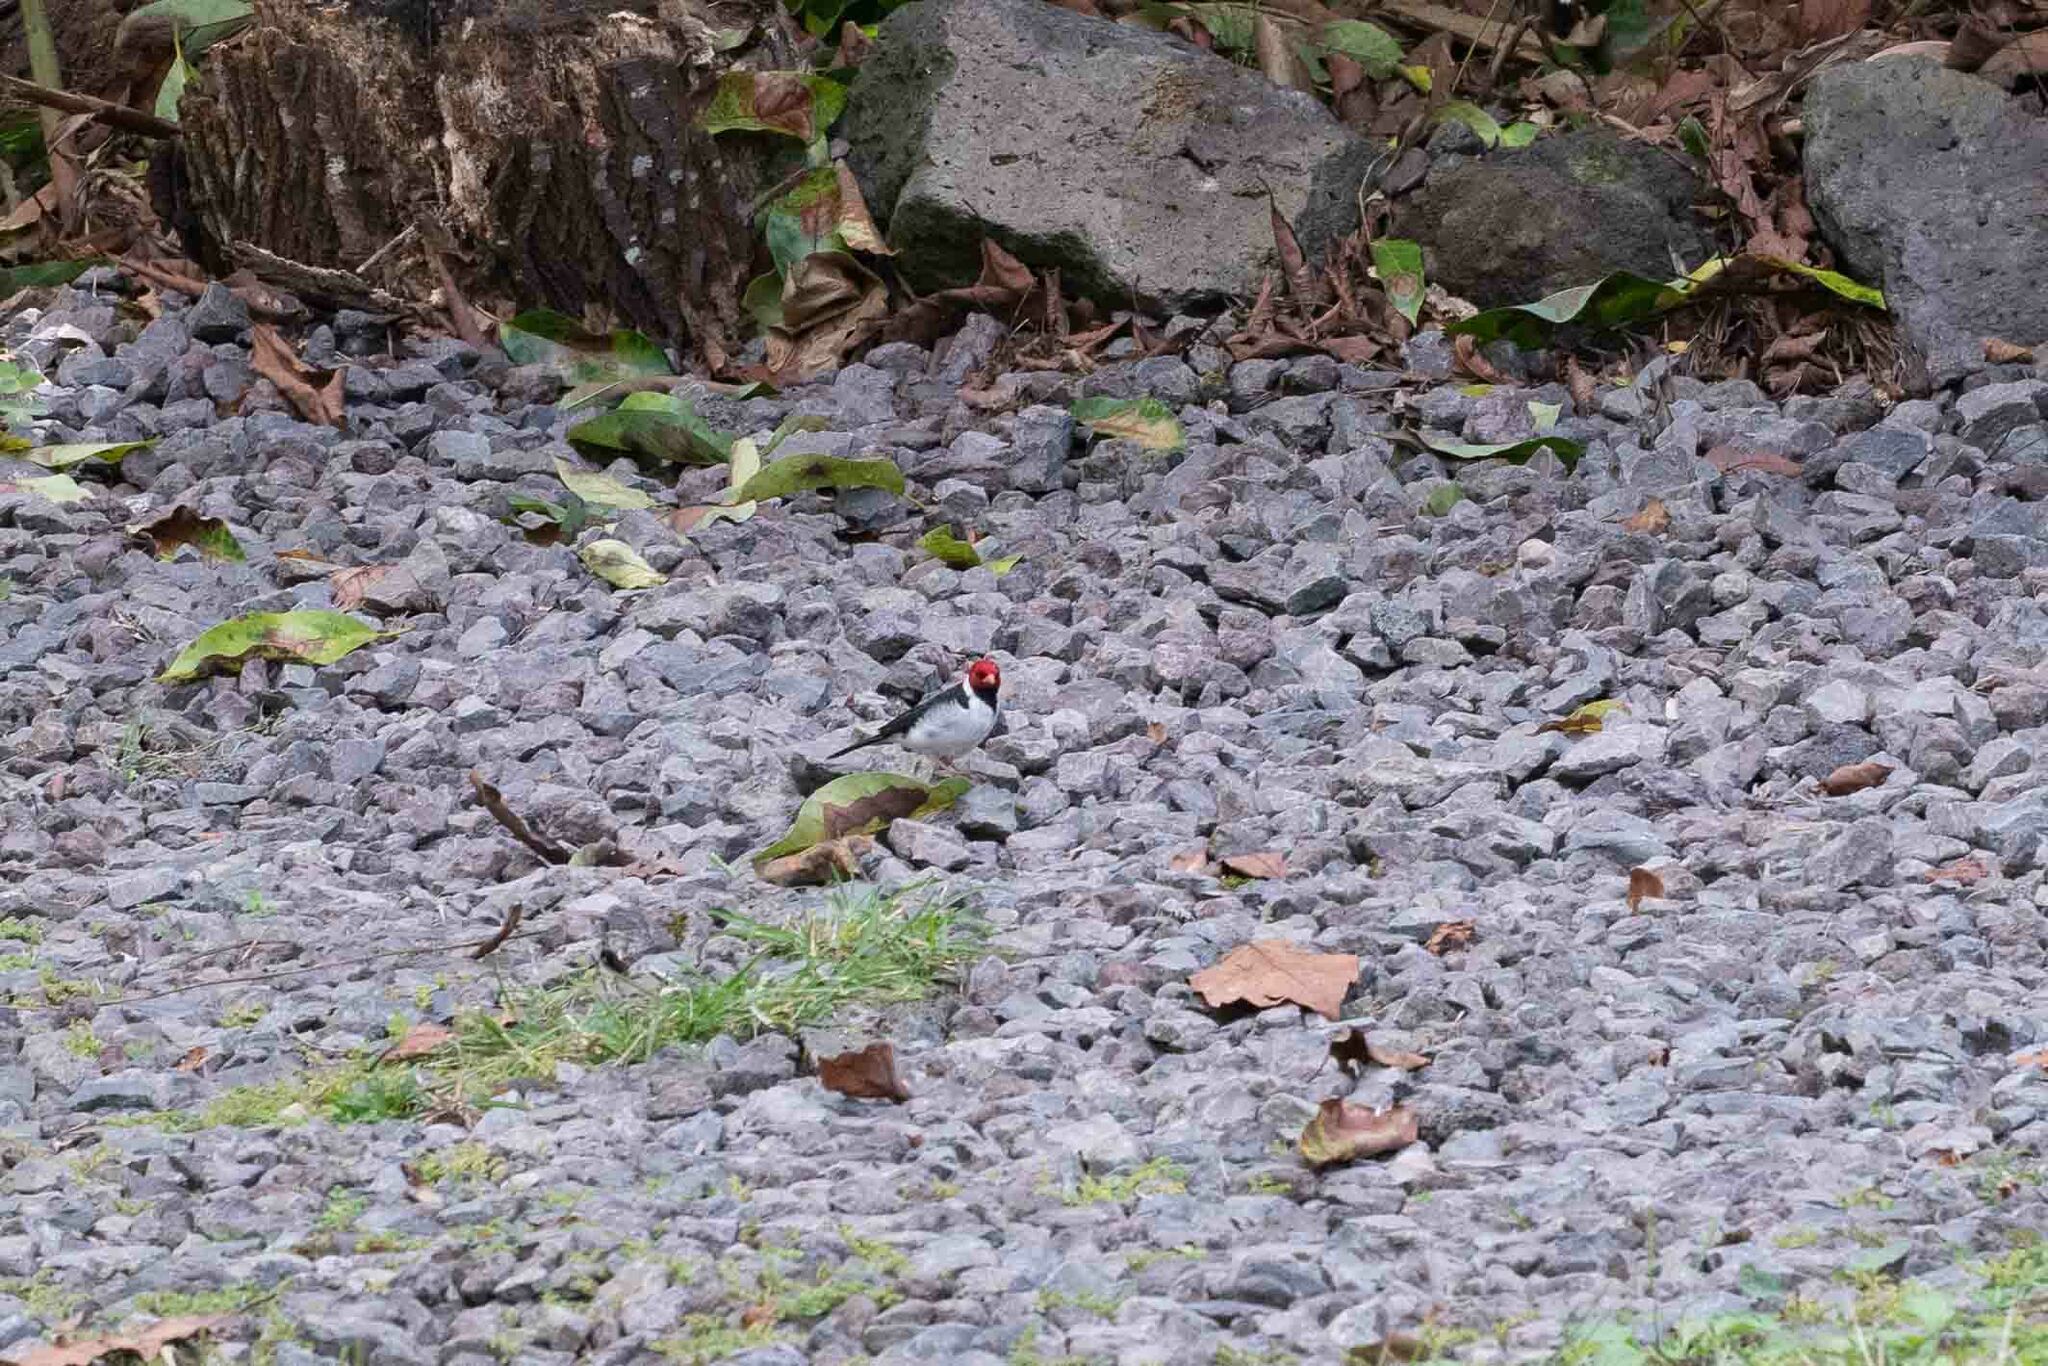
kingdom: Animalia
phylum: Chordata
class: Aves
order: Passeriformes
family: Thraupidae
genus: Paroaria
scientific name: Paroaria capitata
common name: Yellow-billed cardinal
